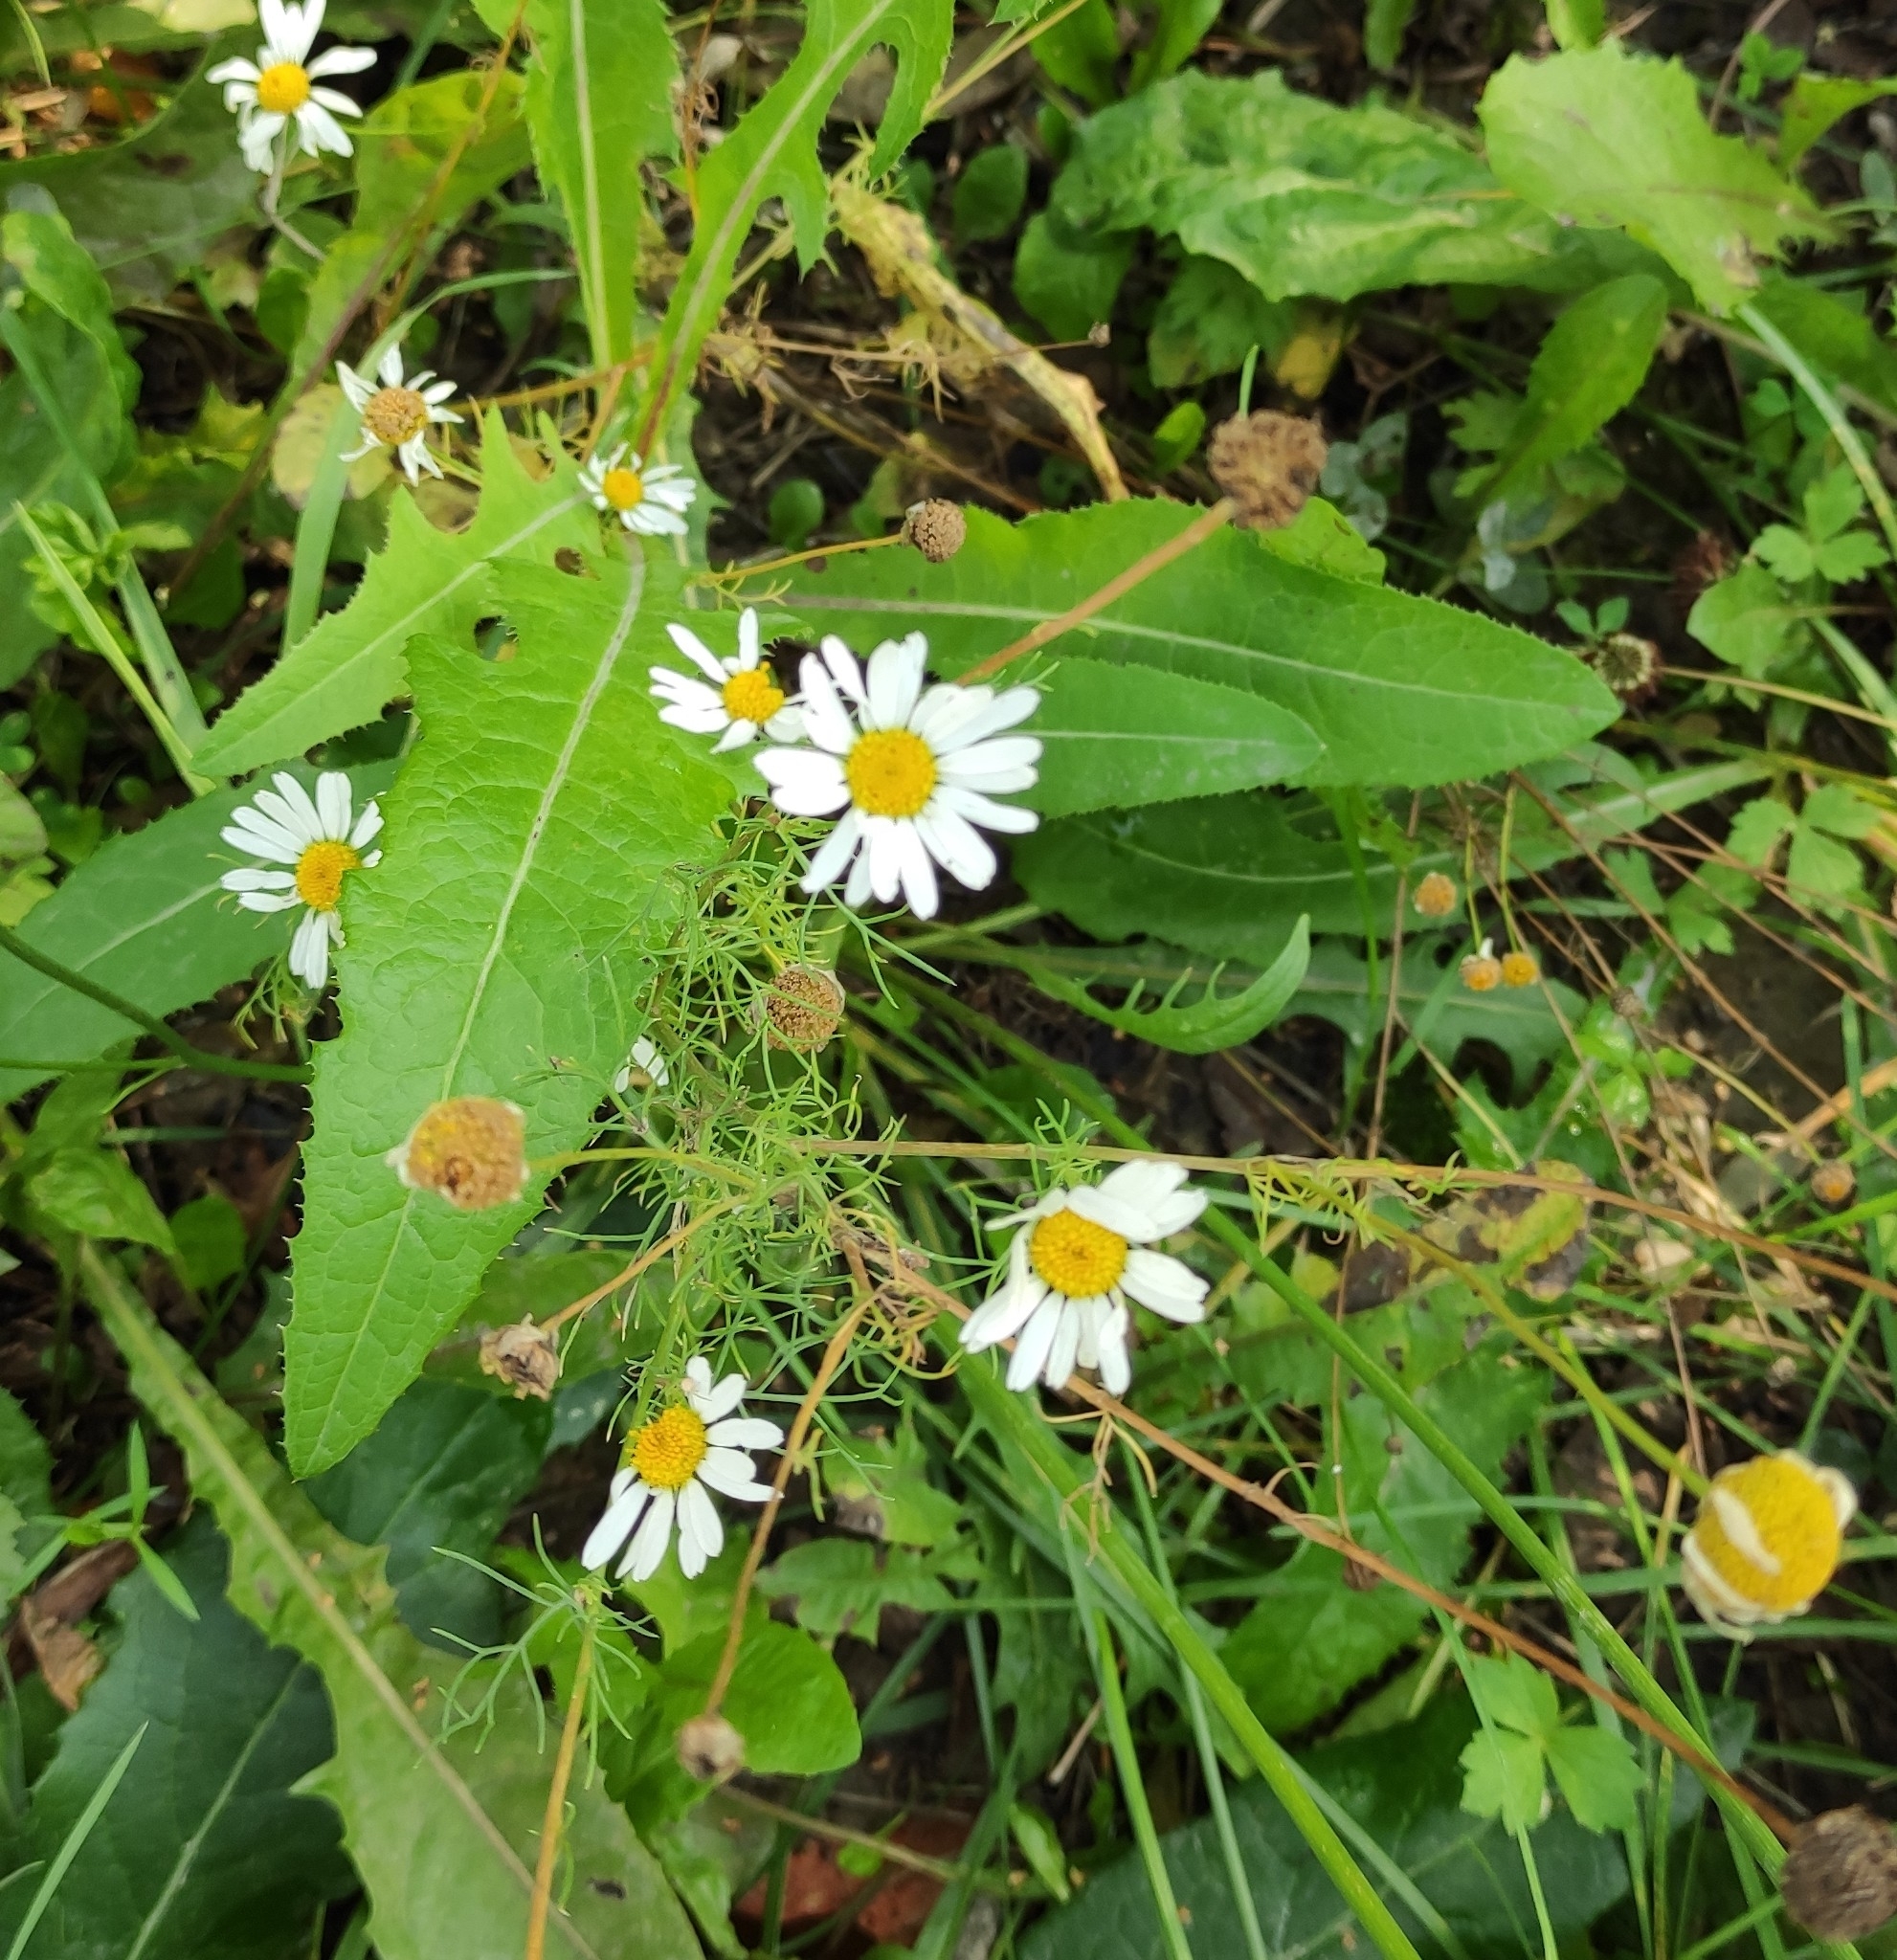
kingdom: Plantae
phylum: Tracheophyta
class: Magnoliopsida
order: Asterales
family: Asteraceae
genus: Tripleurospermum
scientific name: Tripleurospermum inodorum
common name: Scentless mayweed
